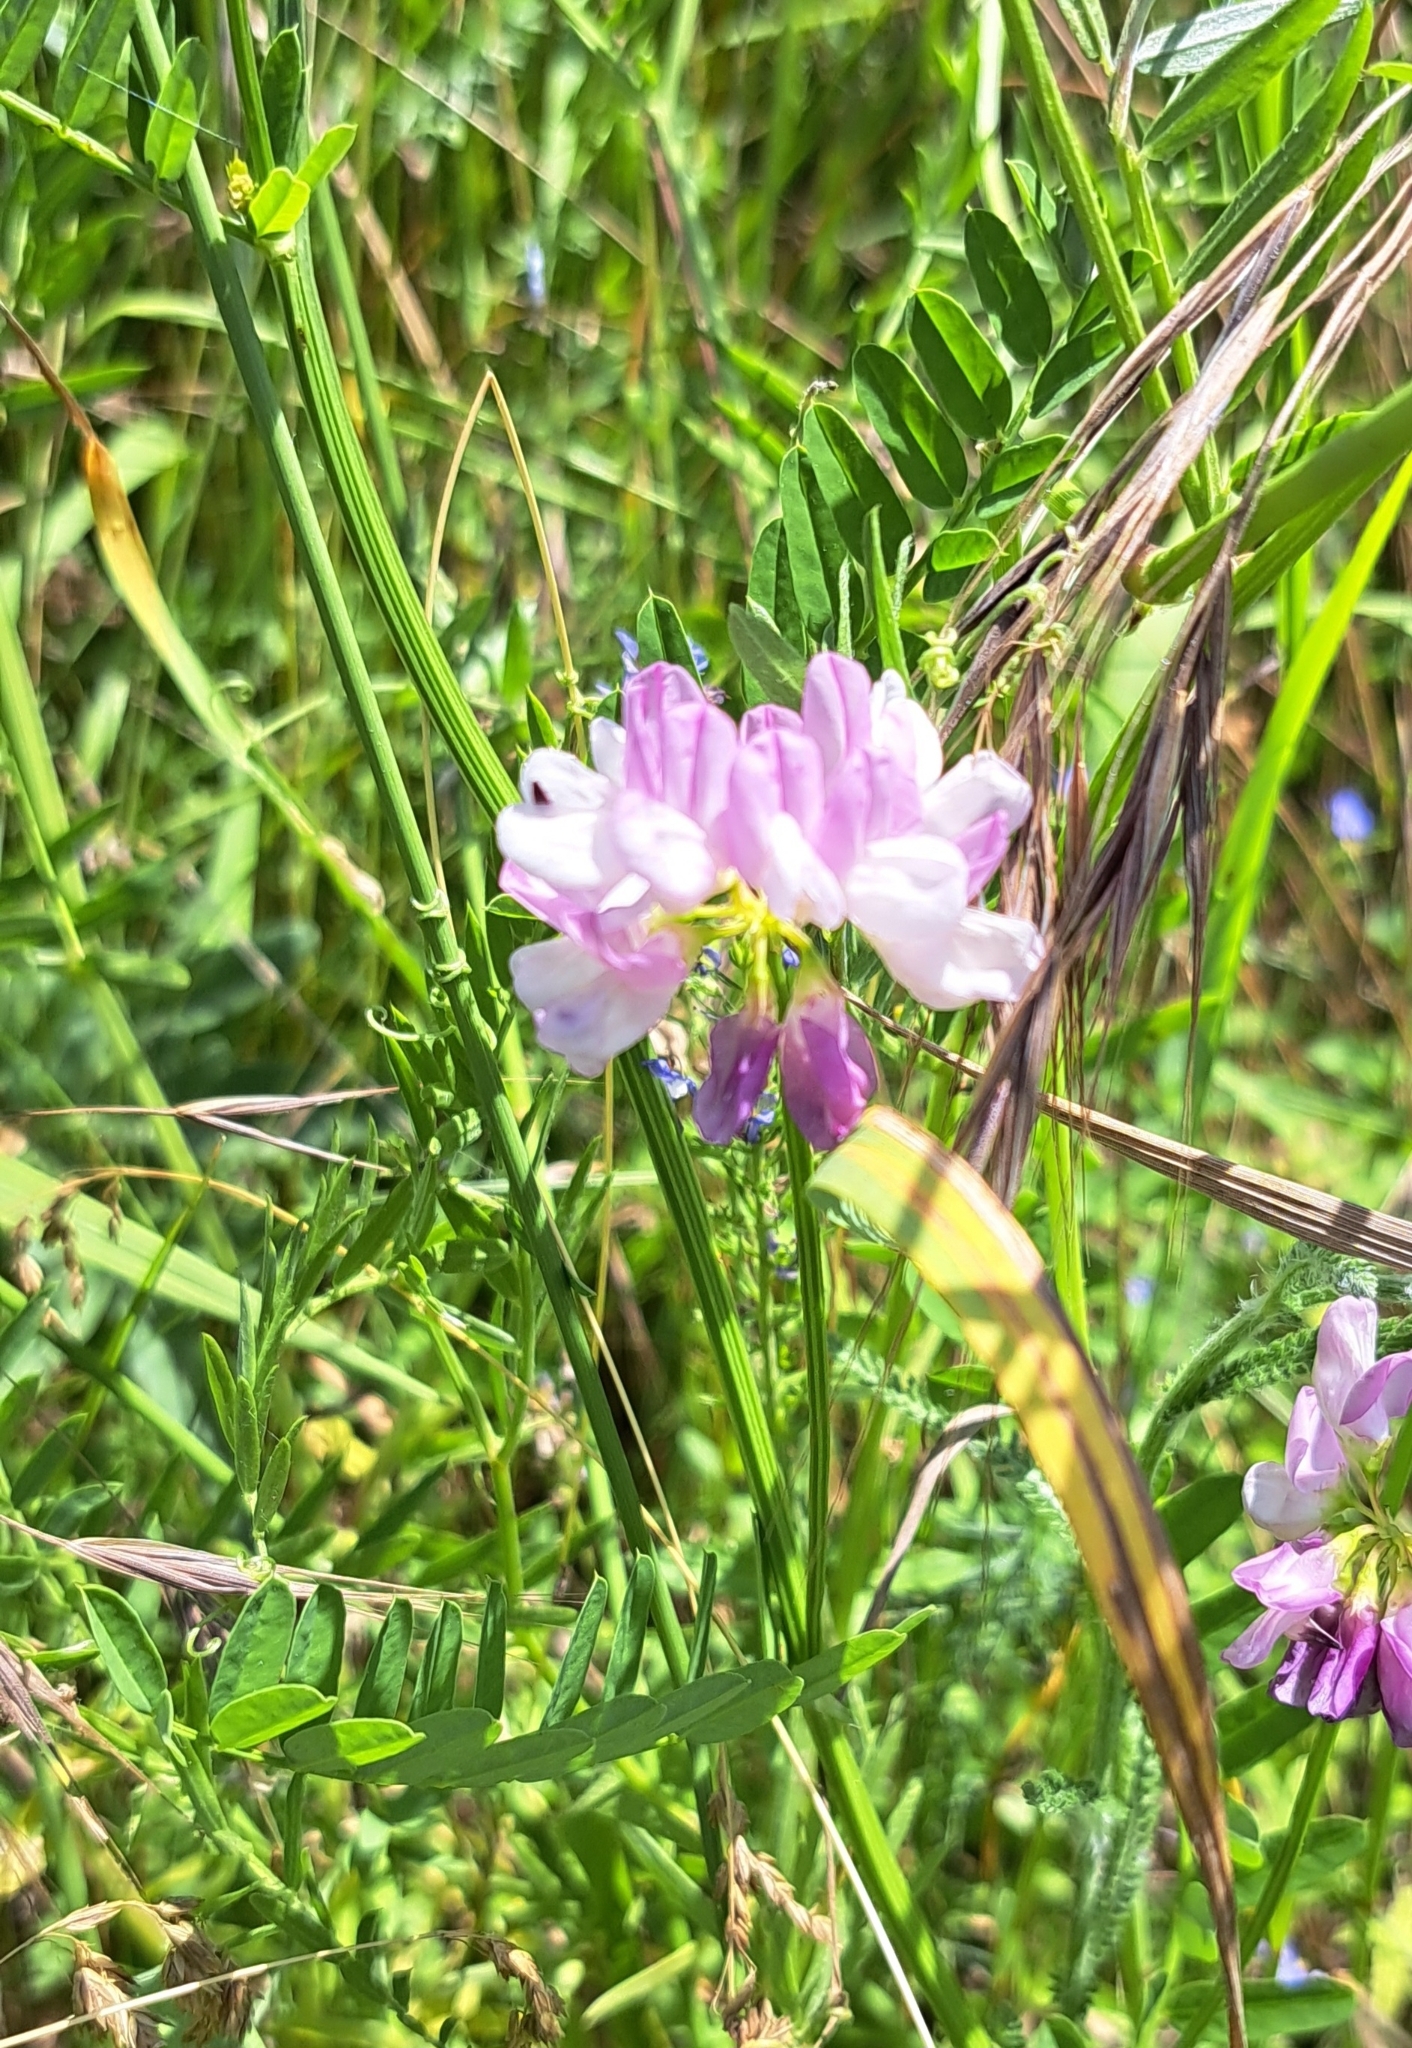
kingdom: Plantae
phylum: Tracheophyta
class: Magnoliopsida
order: Fabales
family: Fabaceae
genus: Coronilla
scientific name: Coronilla varia
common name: Crownvetch
